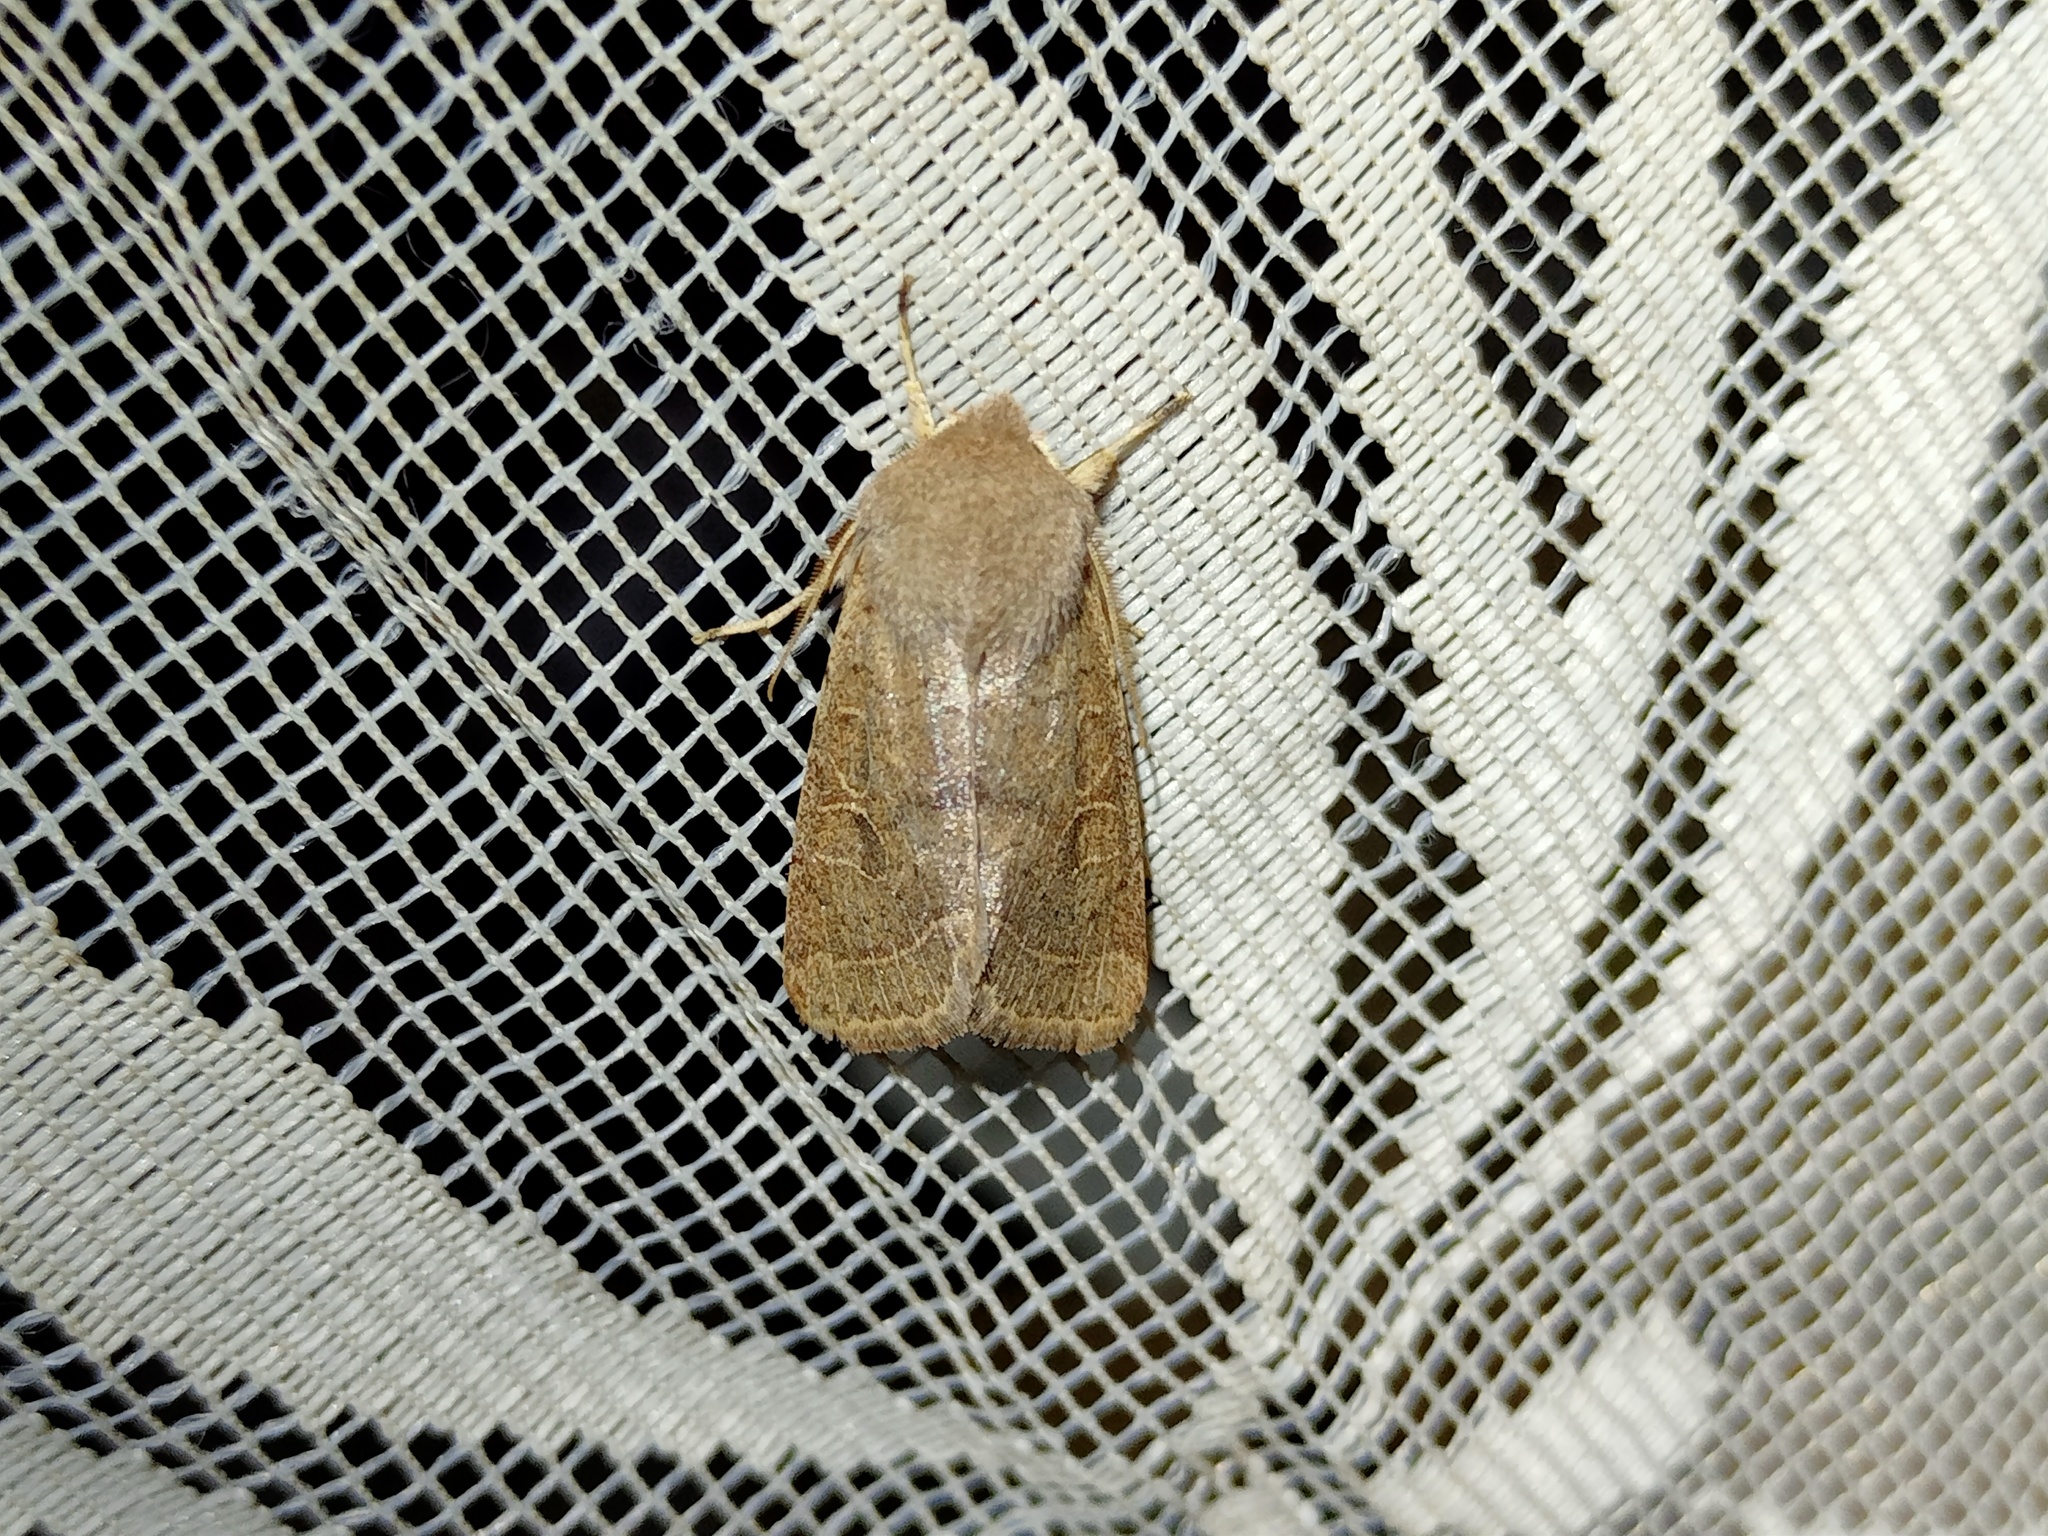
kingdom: Animalia
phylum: Arthropoda
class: Insecta
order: Lepidoptera
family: Noctuidae
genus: Orthosia
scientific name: Orthosia cerasi
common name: Common quaker
